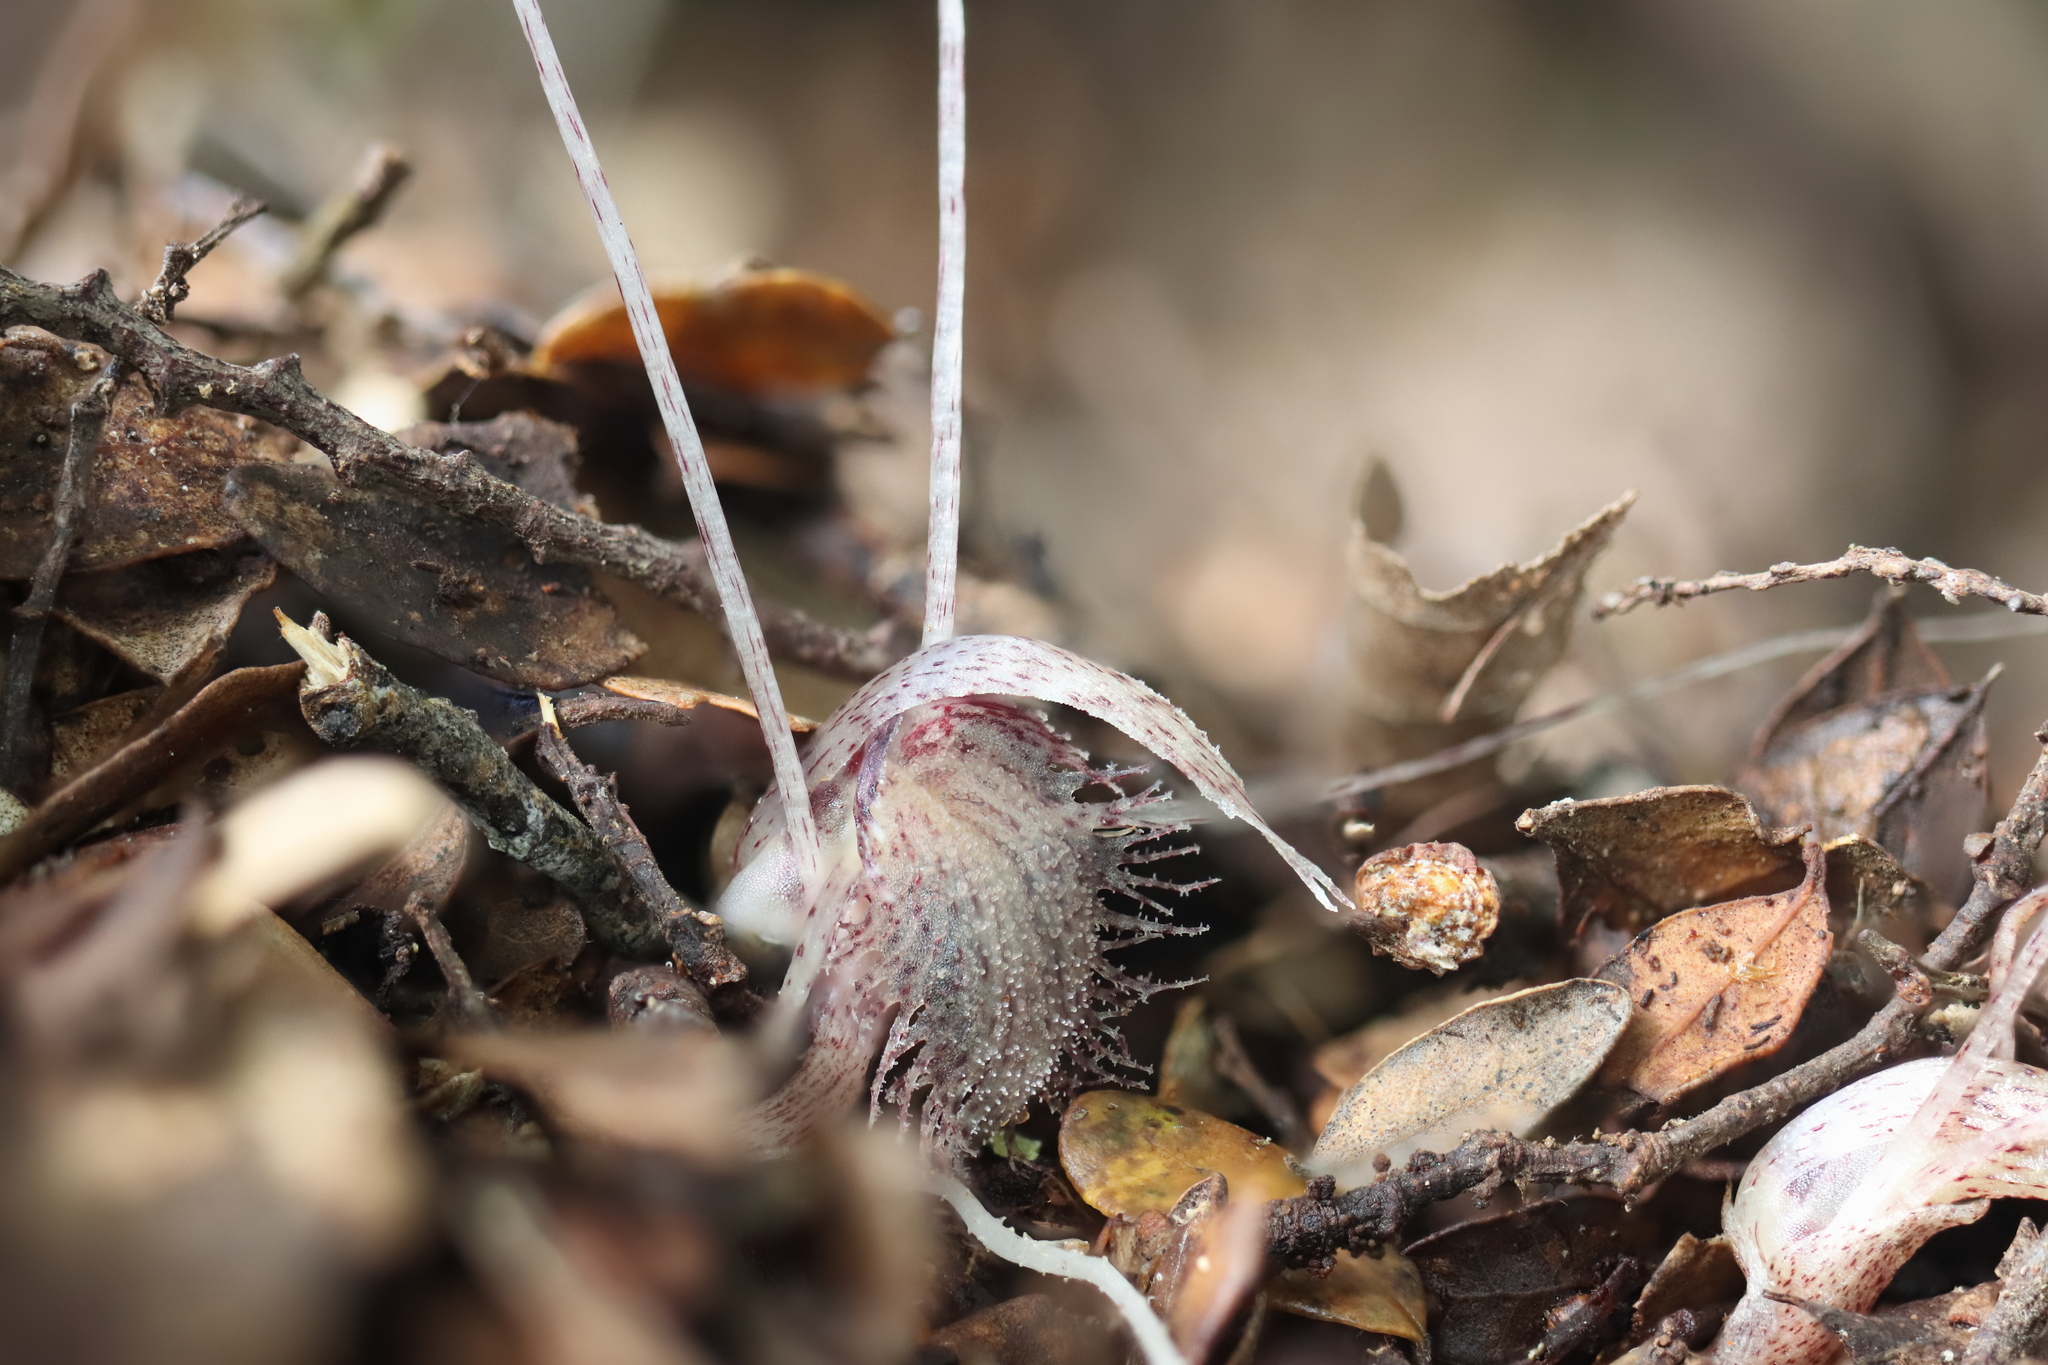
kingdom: Plantae
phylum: Tracheophyta
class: Liliopsida
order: Asparagales
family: Orchidaceae
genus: Corybas
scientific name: Corybas cryptanthus
